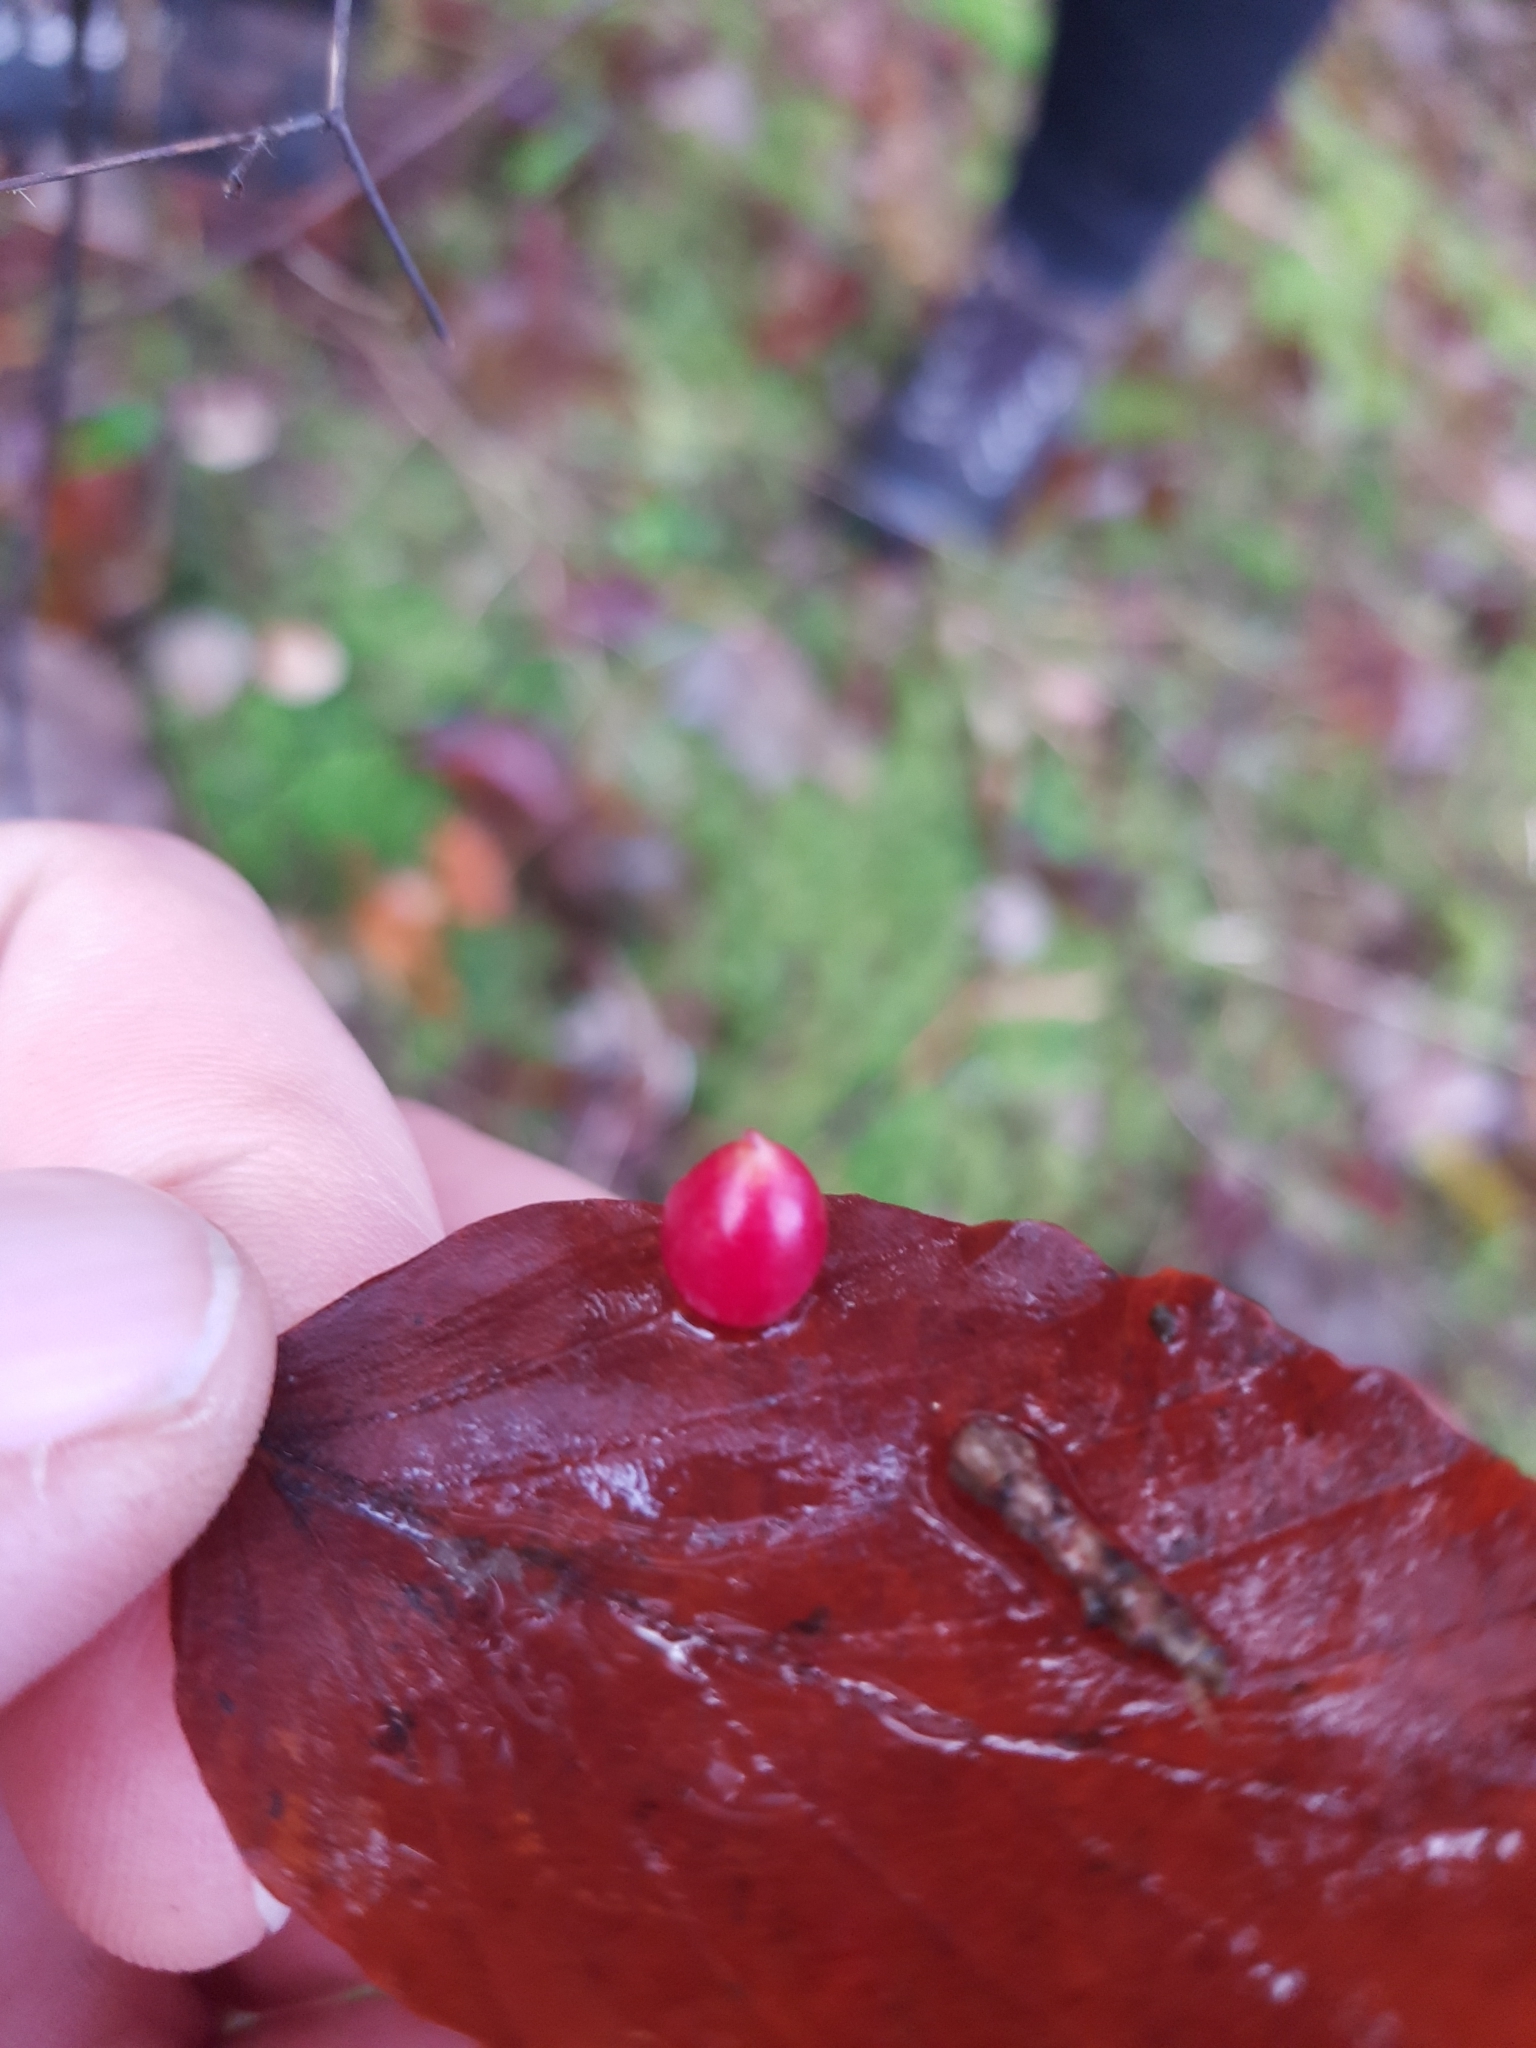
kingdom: Animalia
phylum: Arthropoda
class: Insecta
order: Diptera
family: Cecidomyiidae
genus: Mikiola
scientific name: Mikiola fagi
